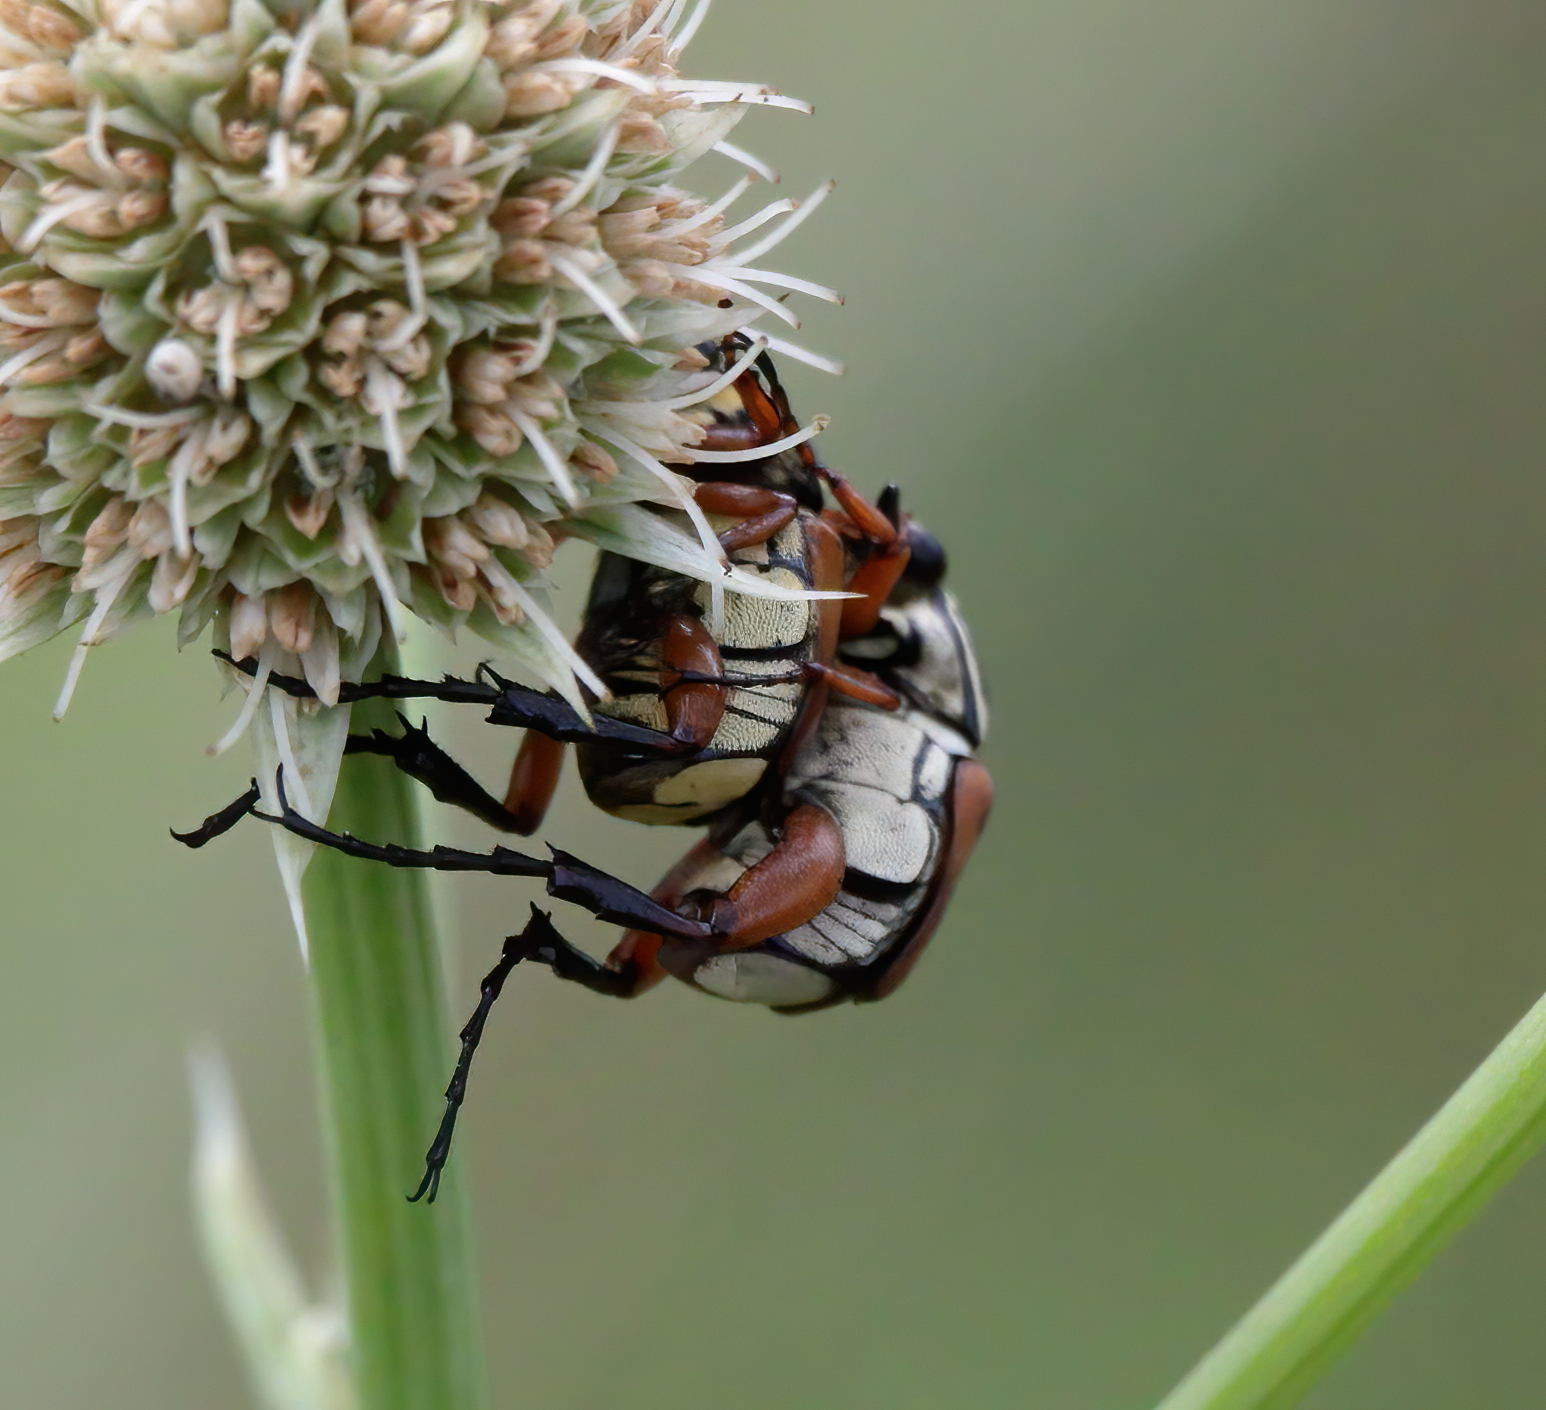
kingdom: Animalia
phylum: Arthropoda
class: Insecta
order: Coleoptera
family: Scarabaeidae
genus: Trigonopeltastes
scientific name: Trigonopeltastes delta
